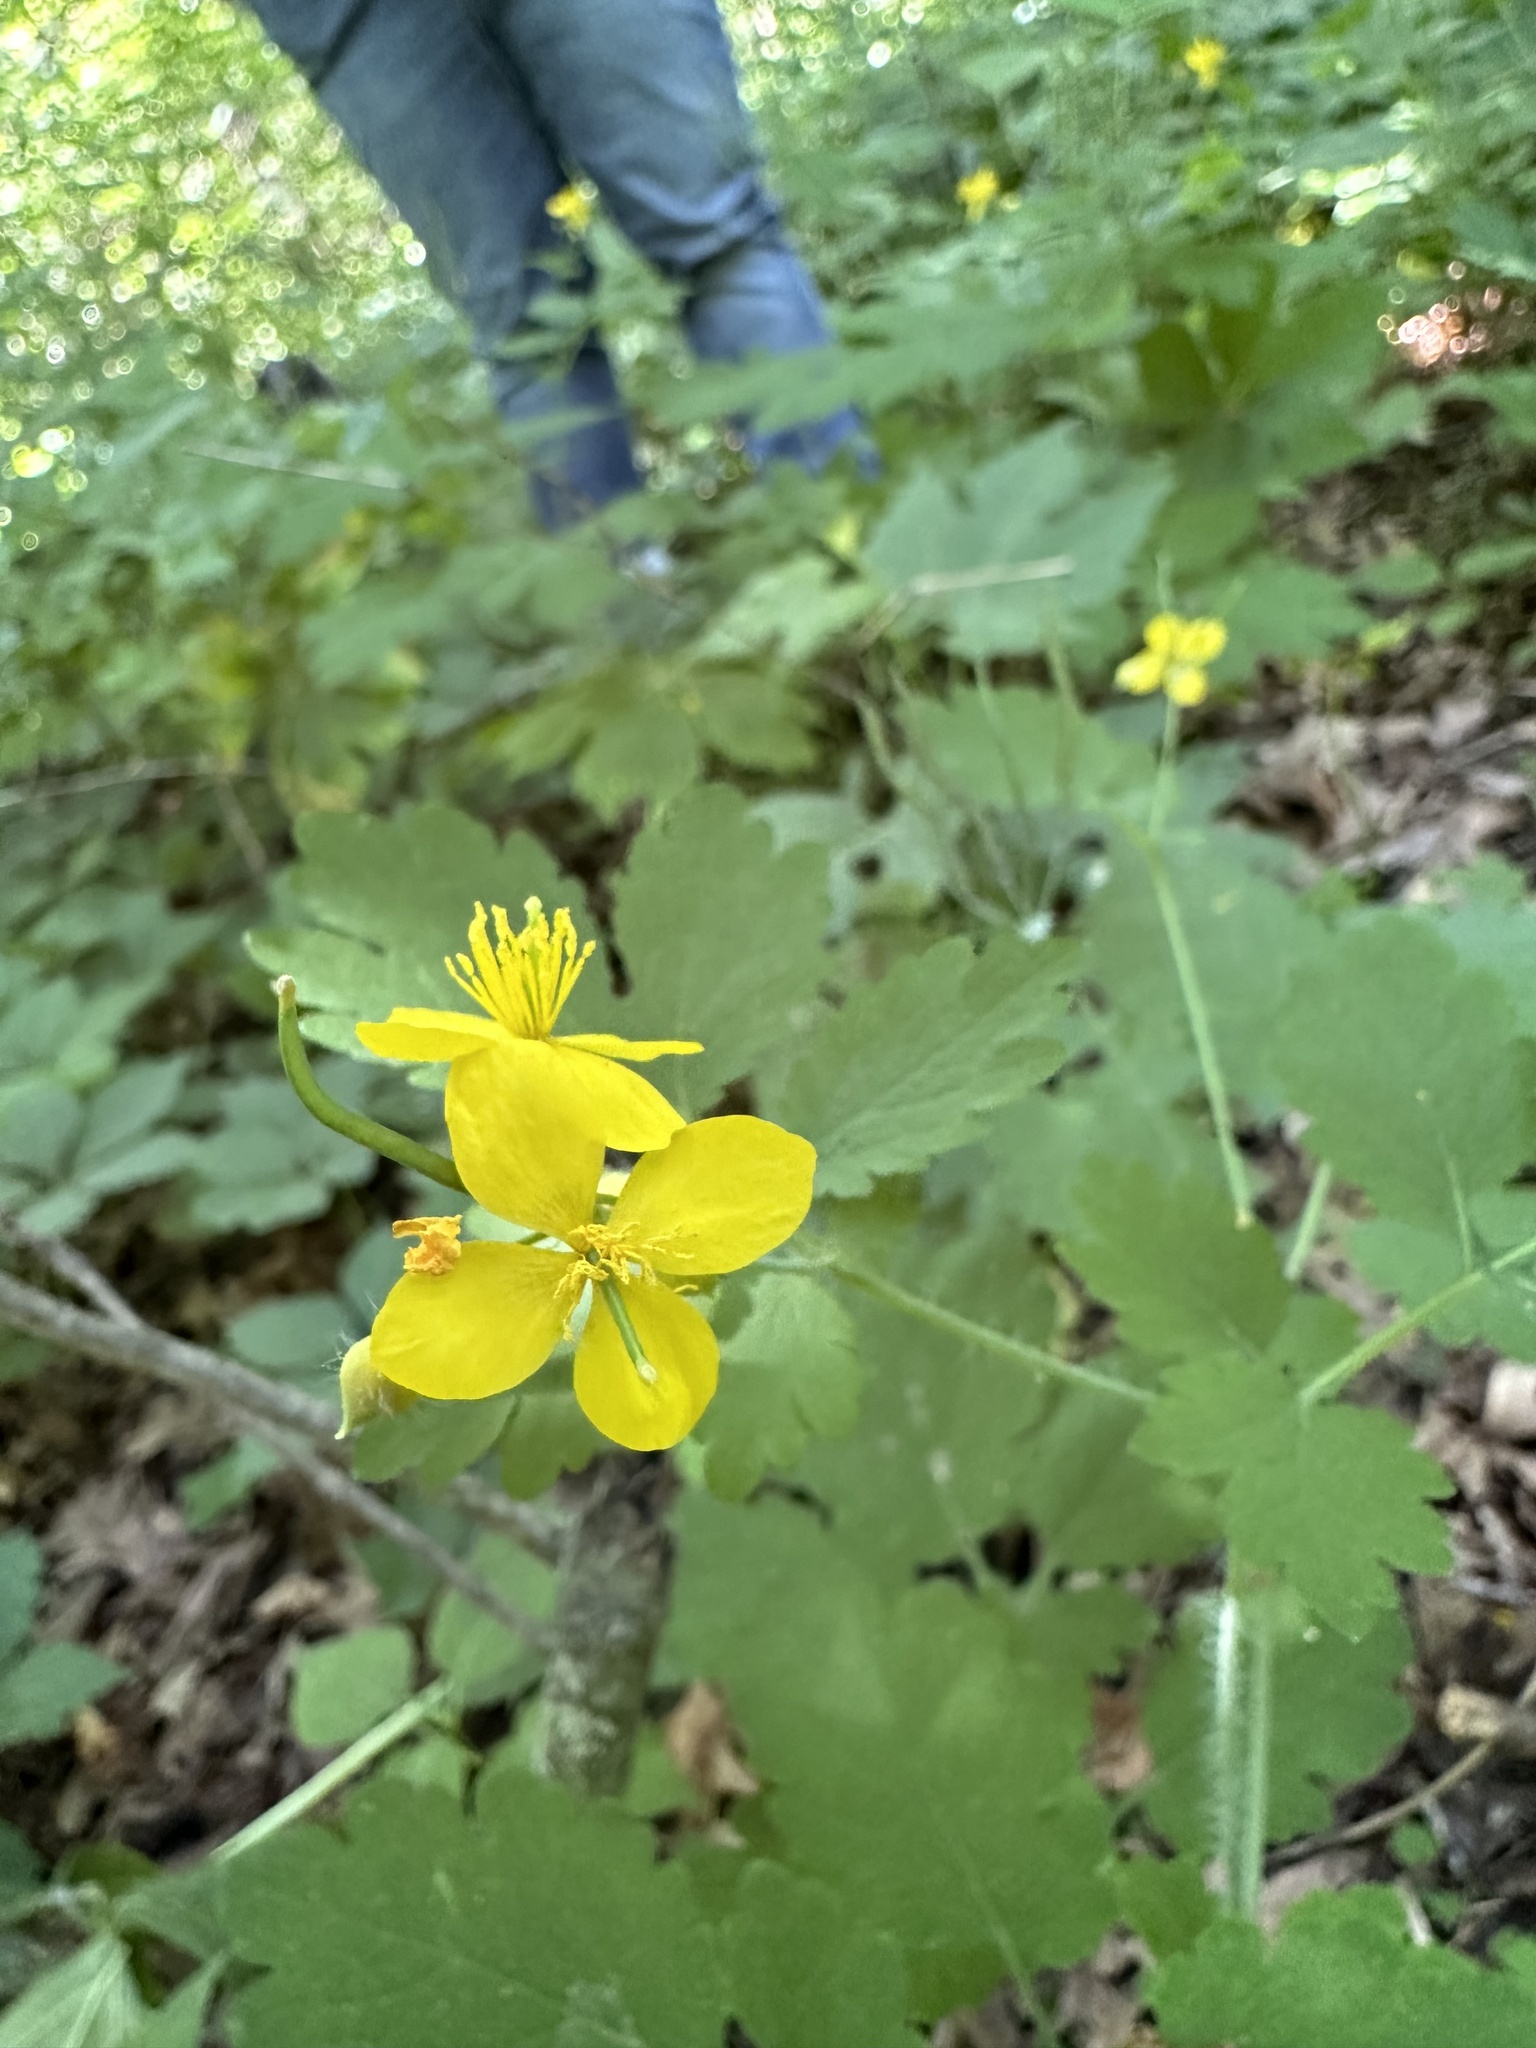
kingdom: Plantae
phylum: Tracheophyta
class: Magnoliopsida
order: Ranunculales
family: Papaveraceae
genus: Chelidonium
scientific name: Chelidonium majus
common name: Greater celandine
